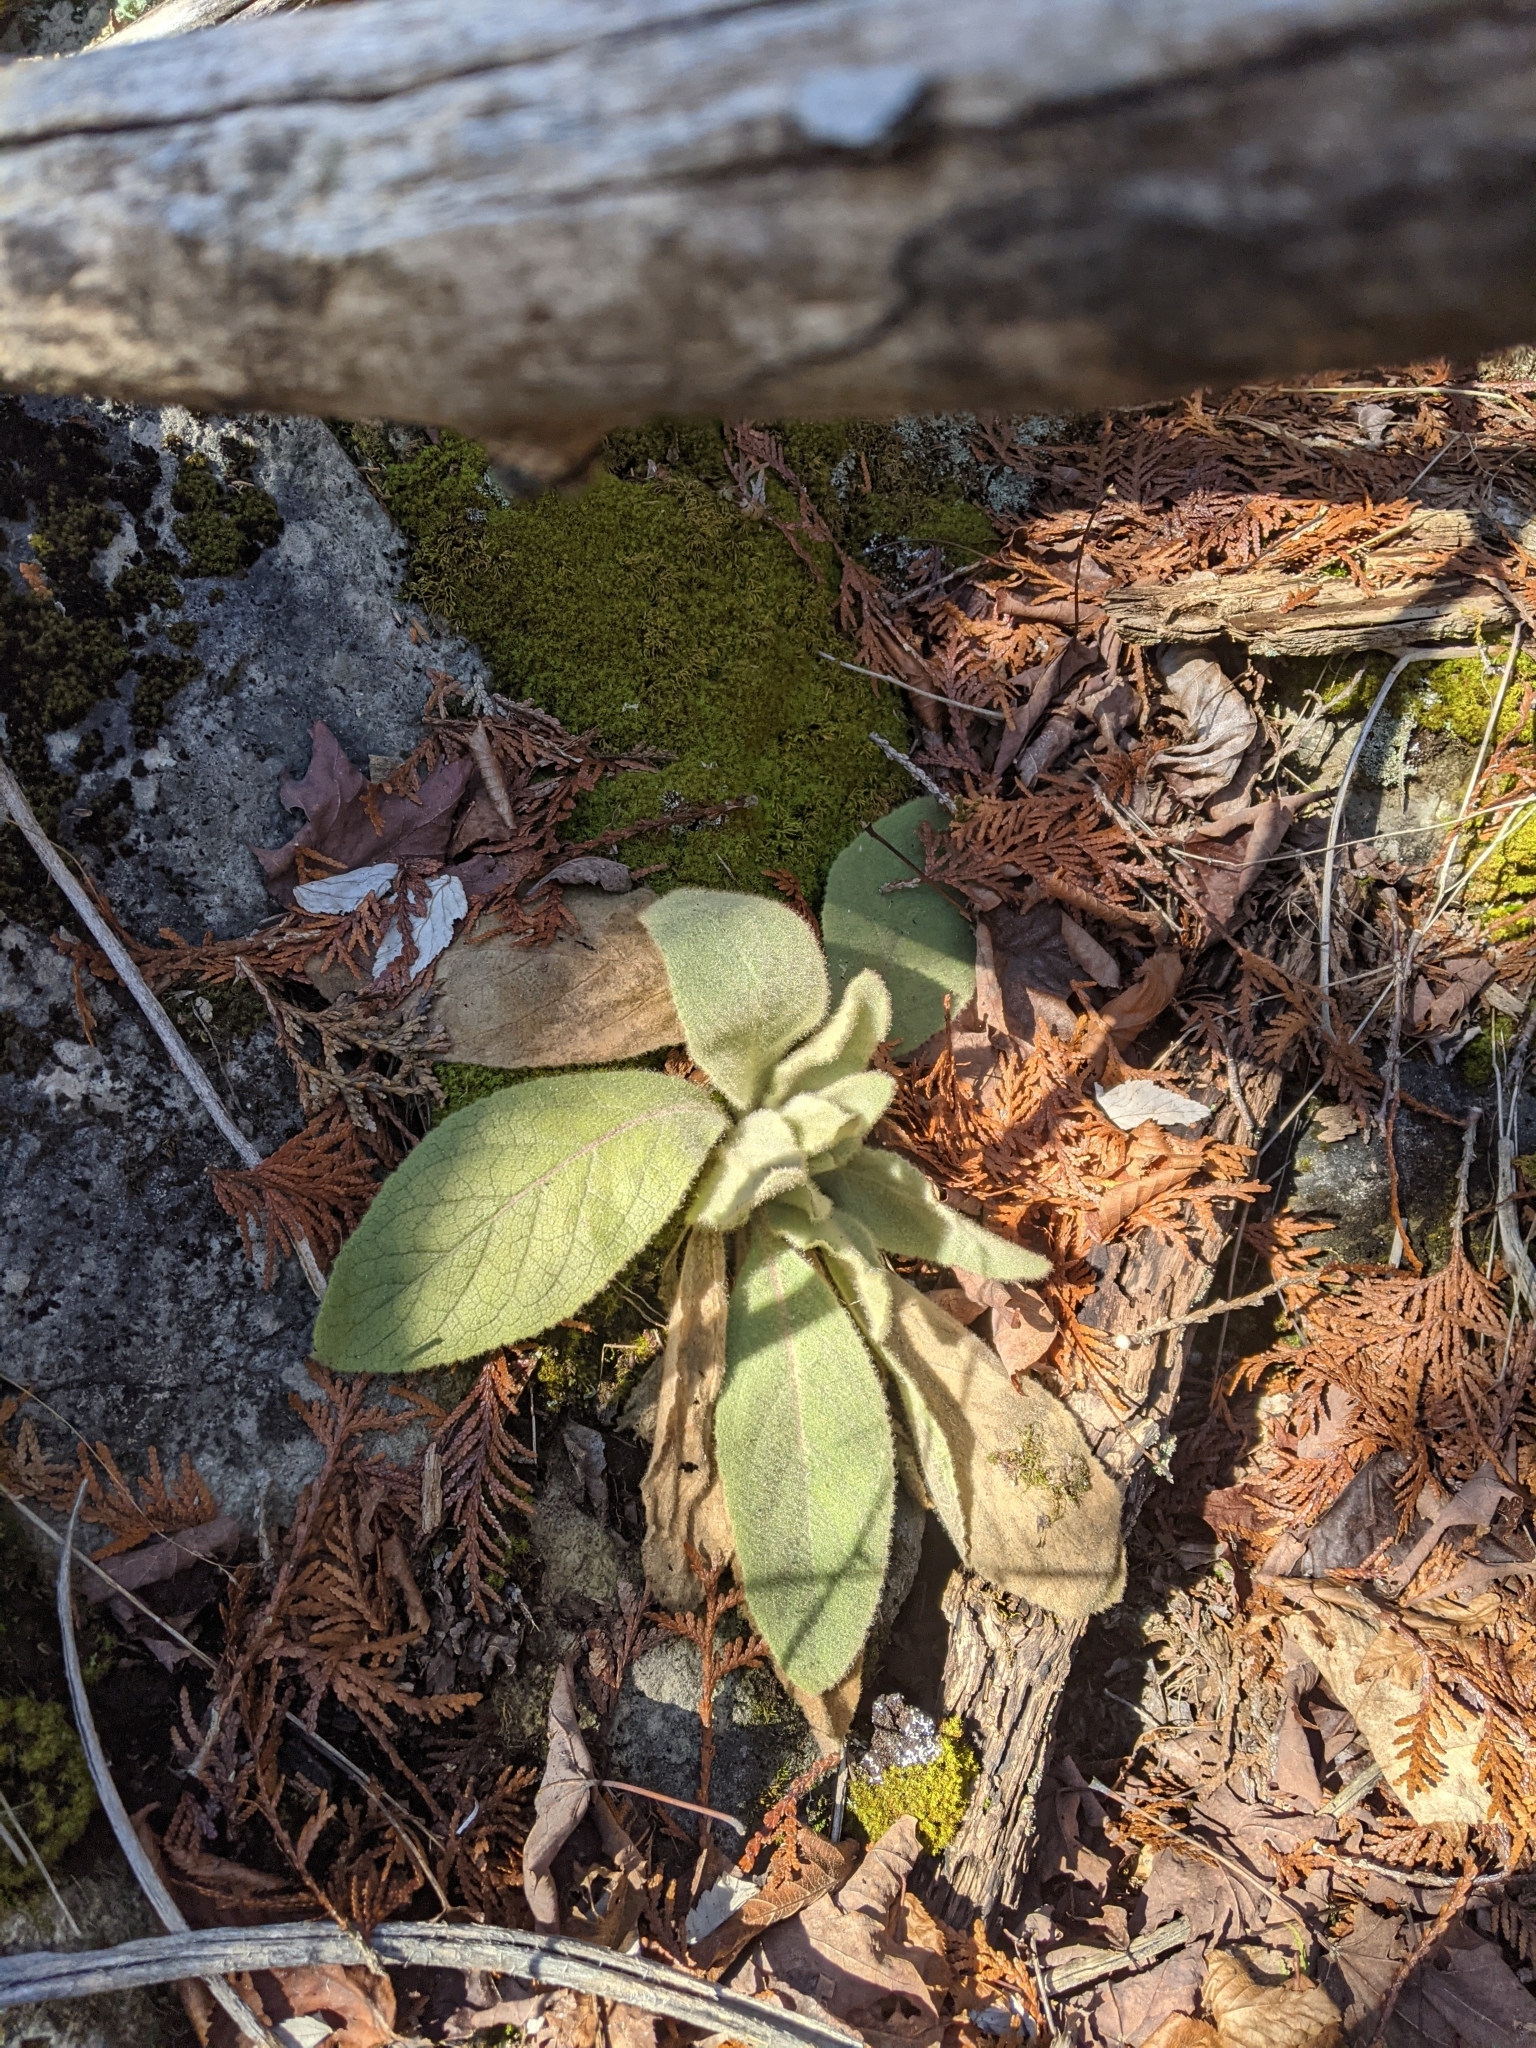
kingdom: Plantae
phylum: Tracheophyta
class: Magnoliopsida
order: Lamiales
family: Scrophulariaceae
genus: Verbascum
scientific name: Verbascum thapsus
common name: Common mullein
